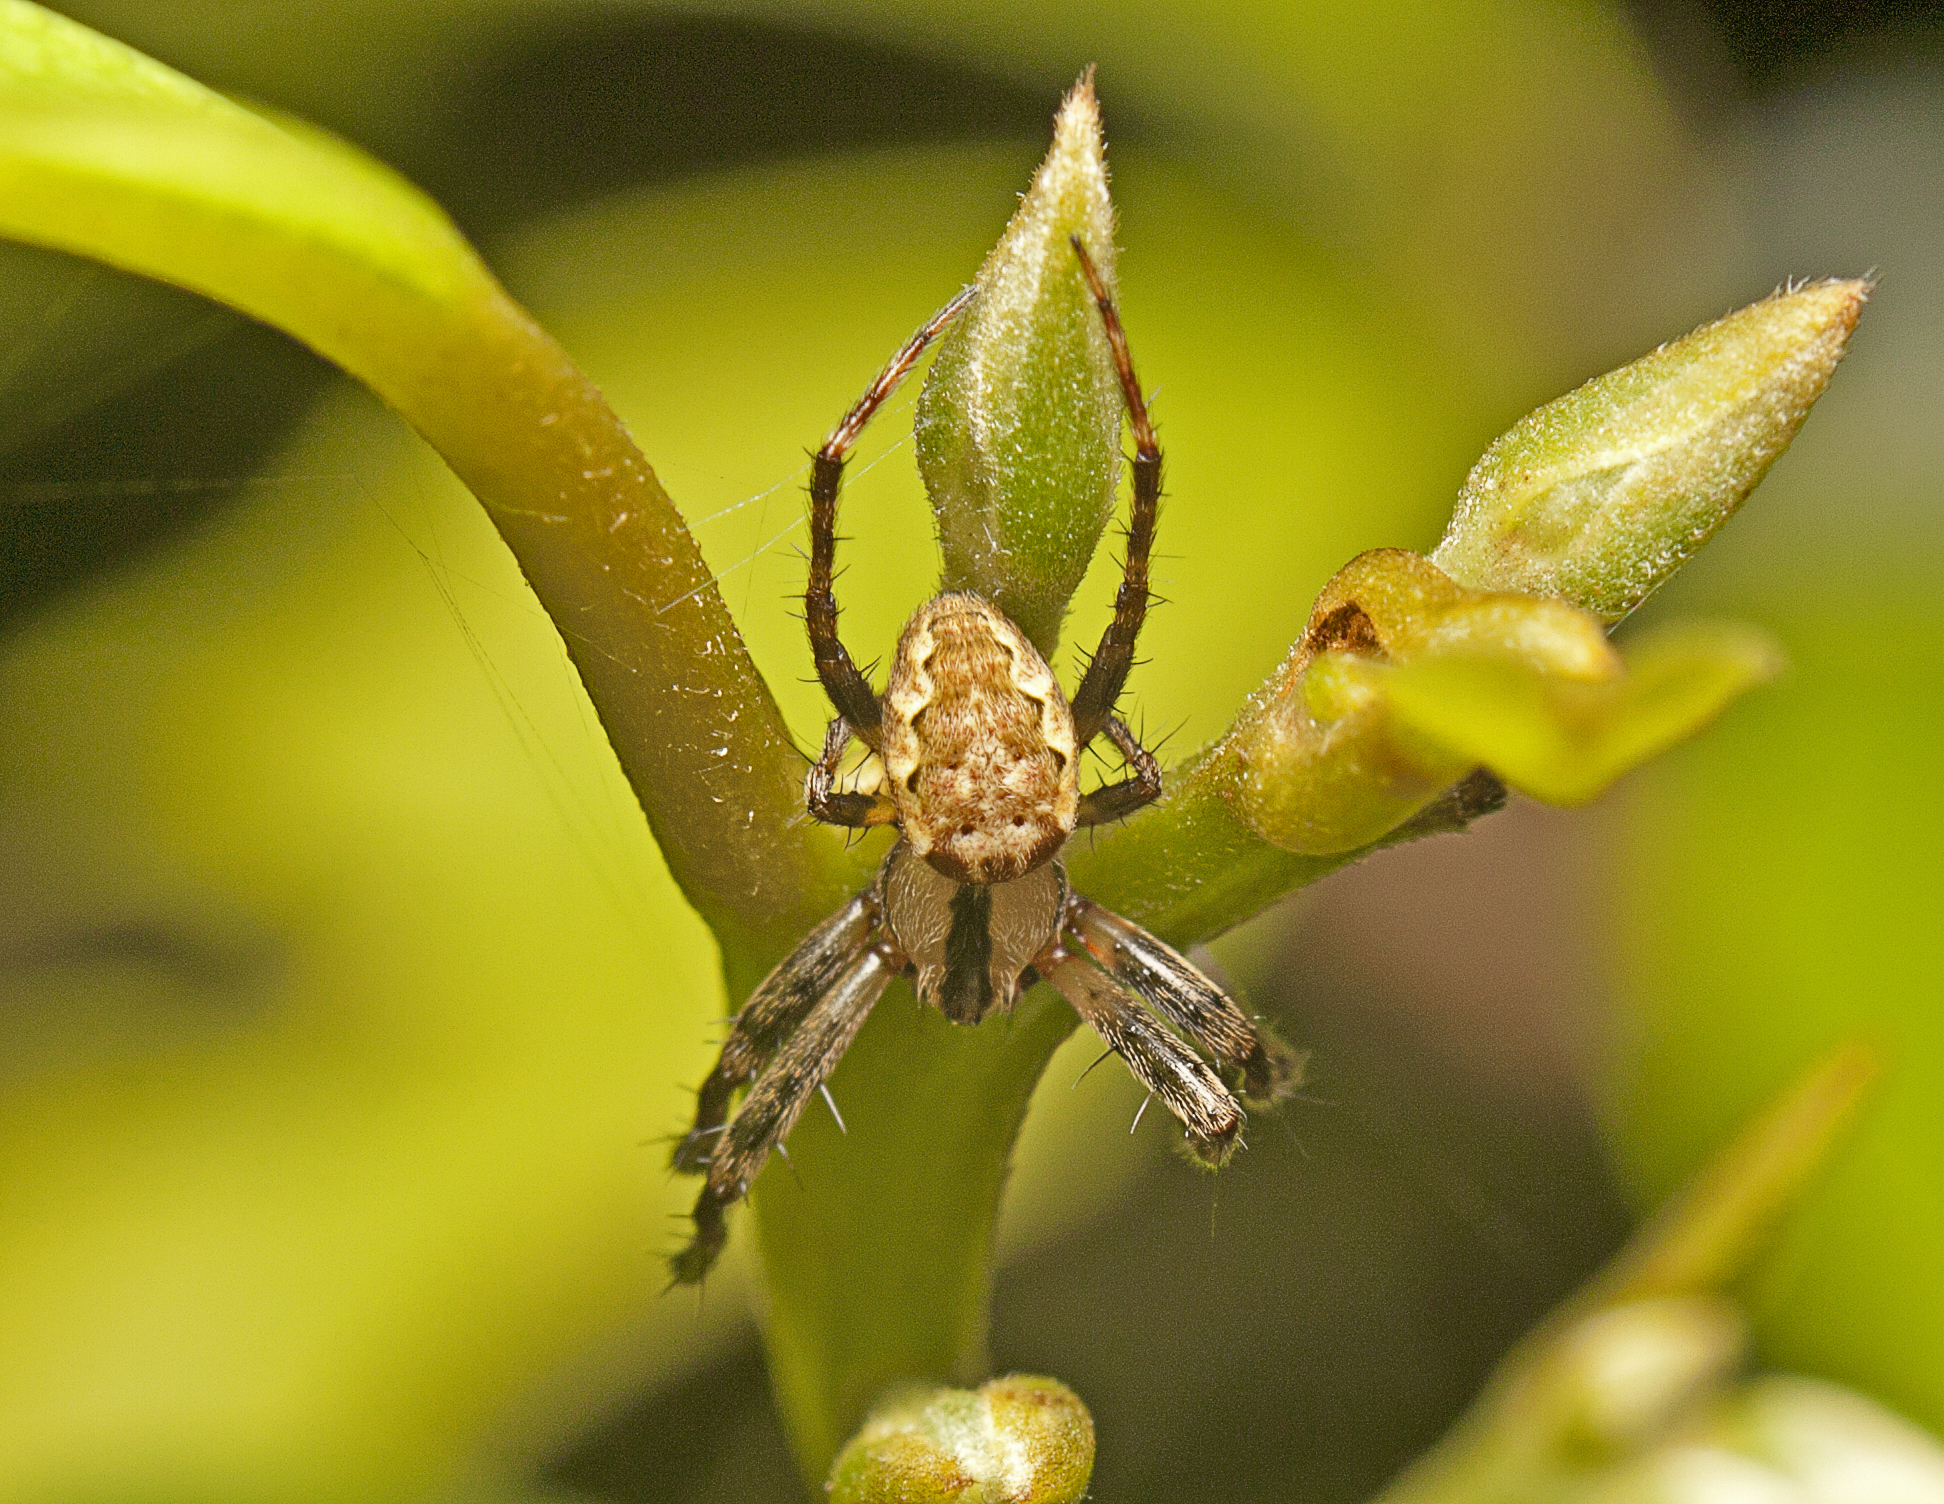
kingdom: Animalia
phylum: Arthropoda
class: Arachnida
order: Araneae
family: Araneidae
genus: Plebs
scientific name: Plebs eburnus
